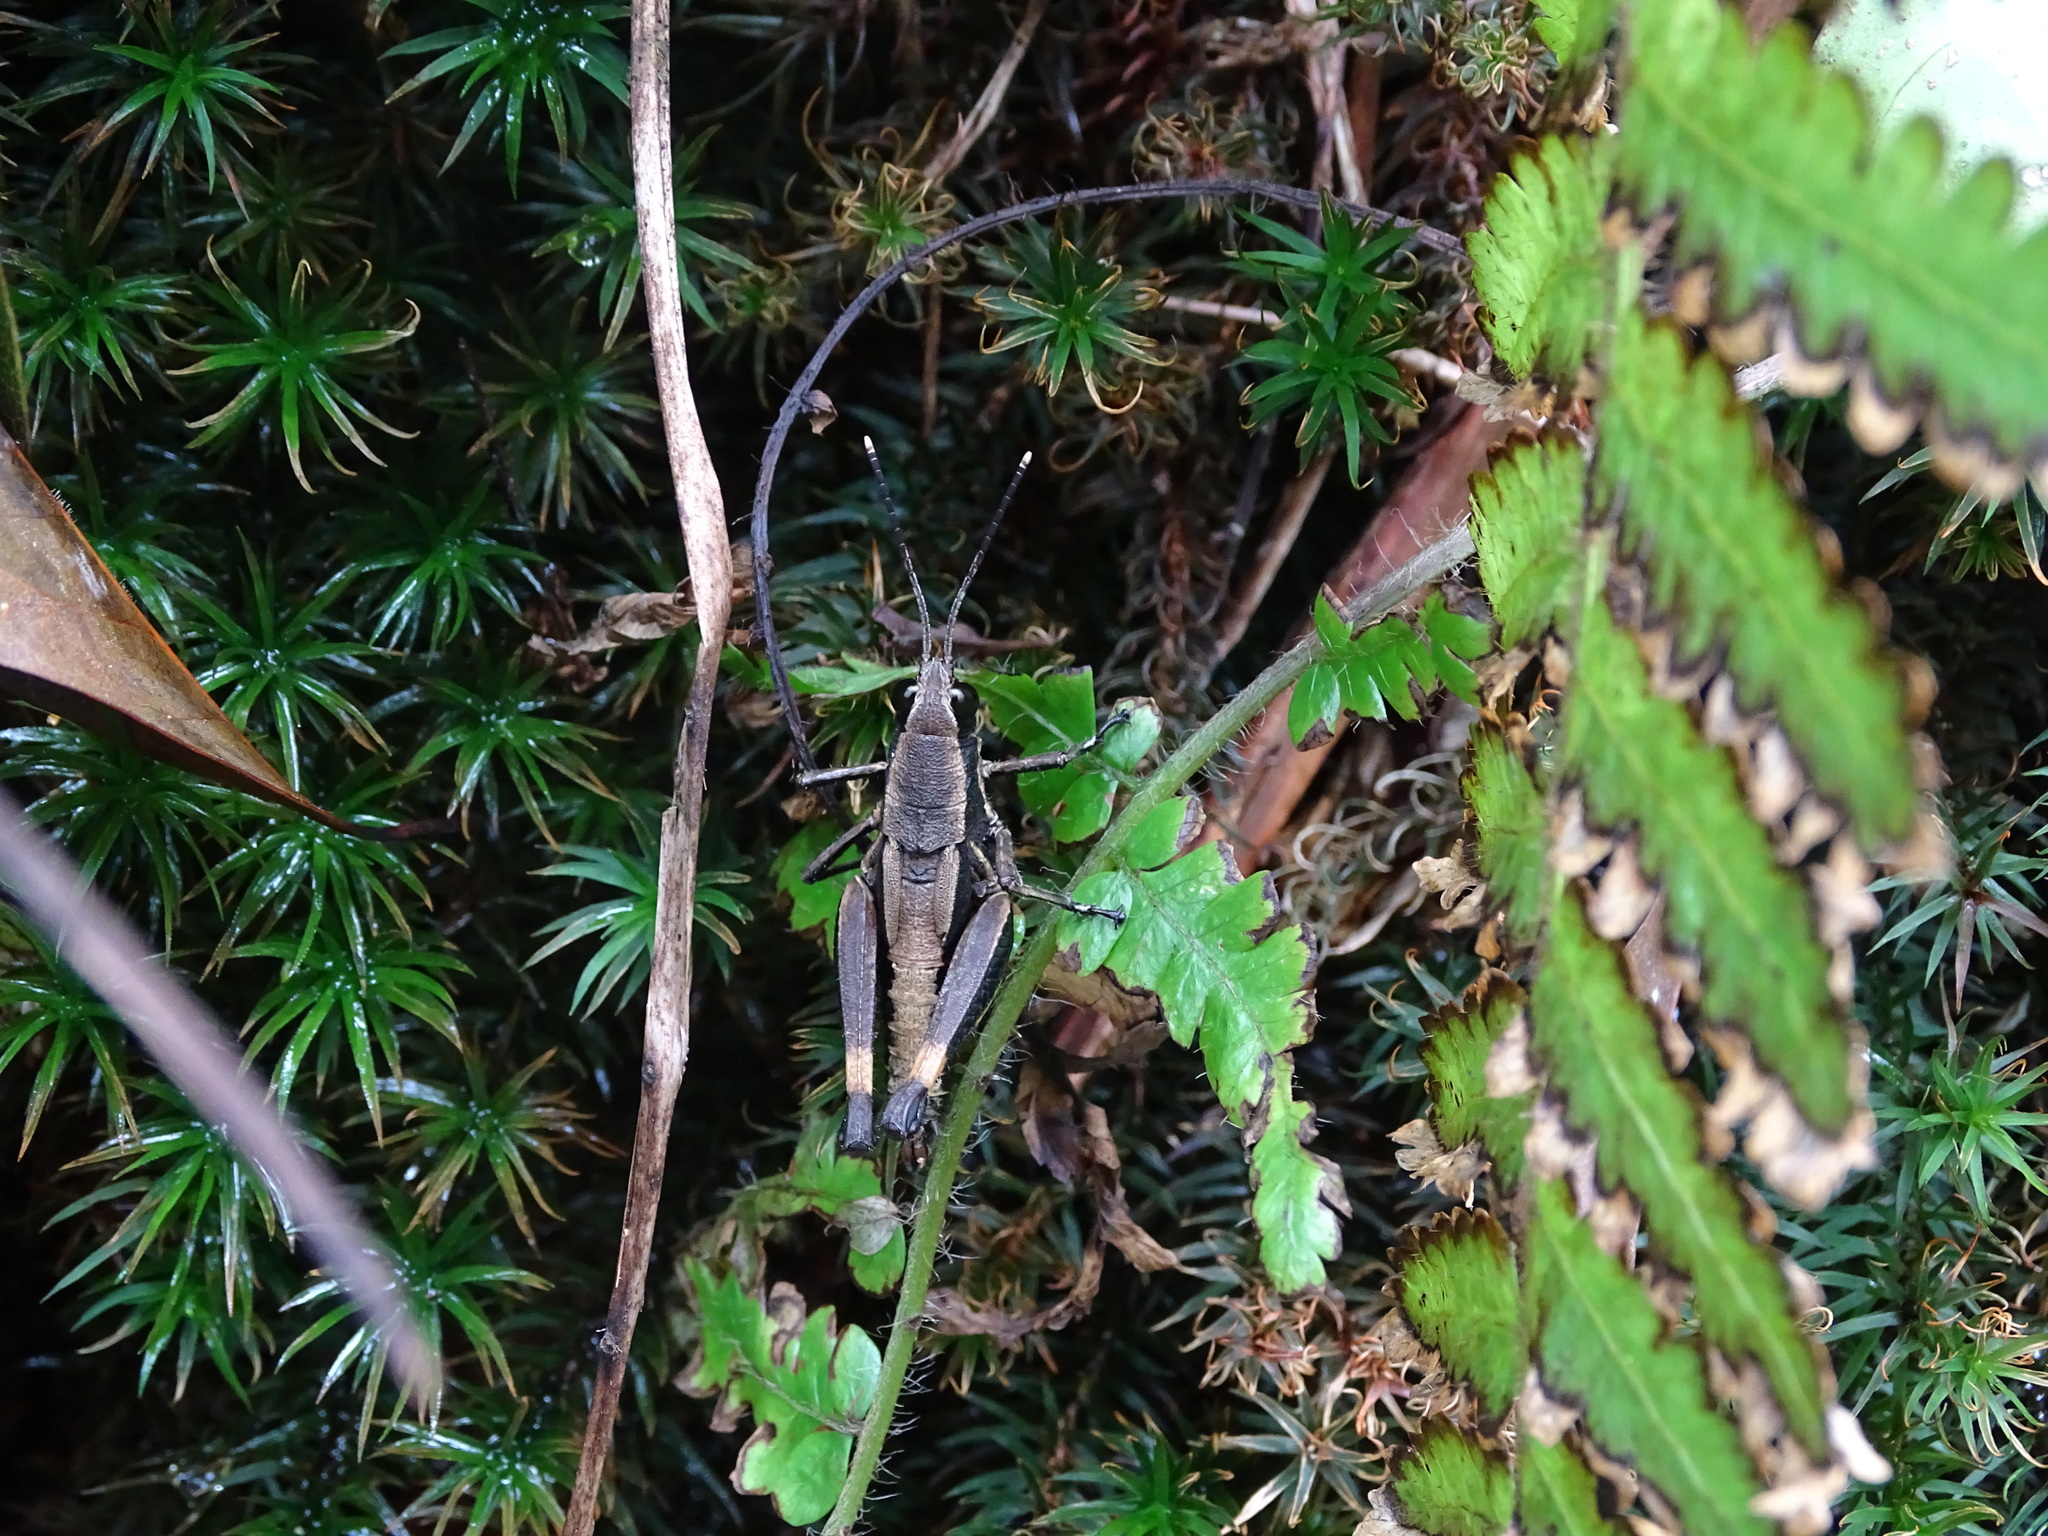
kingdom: Animalia
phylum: Arthropoda
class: Insecta
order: Orthoptera
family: Acrididae
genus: Traulia
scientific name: Traulia flavoannulata
